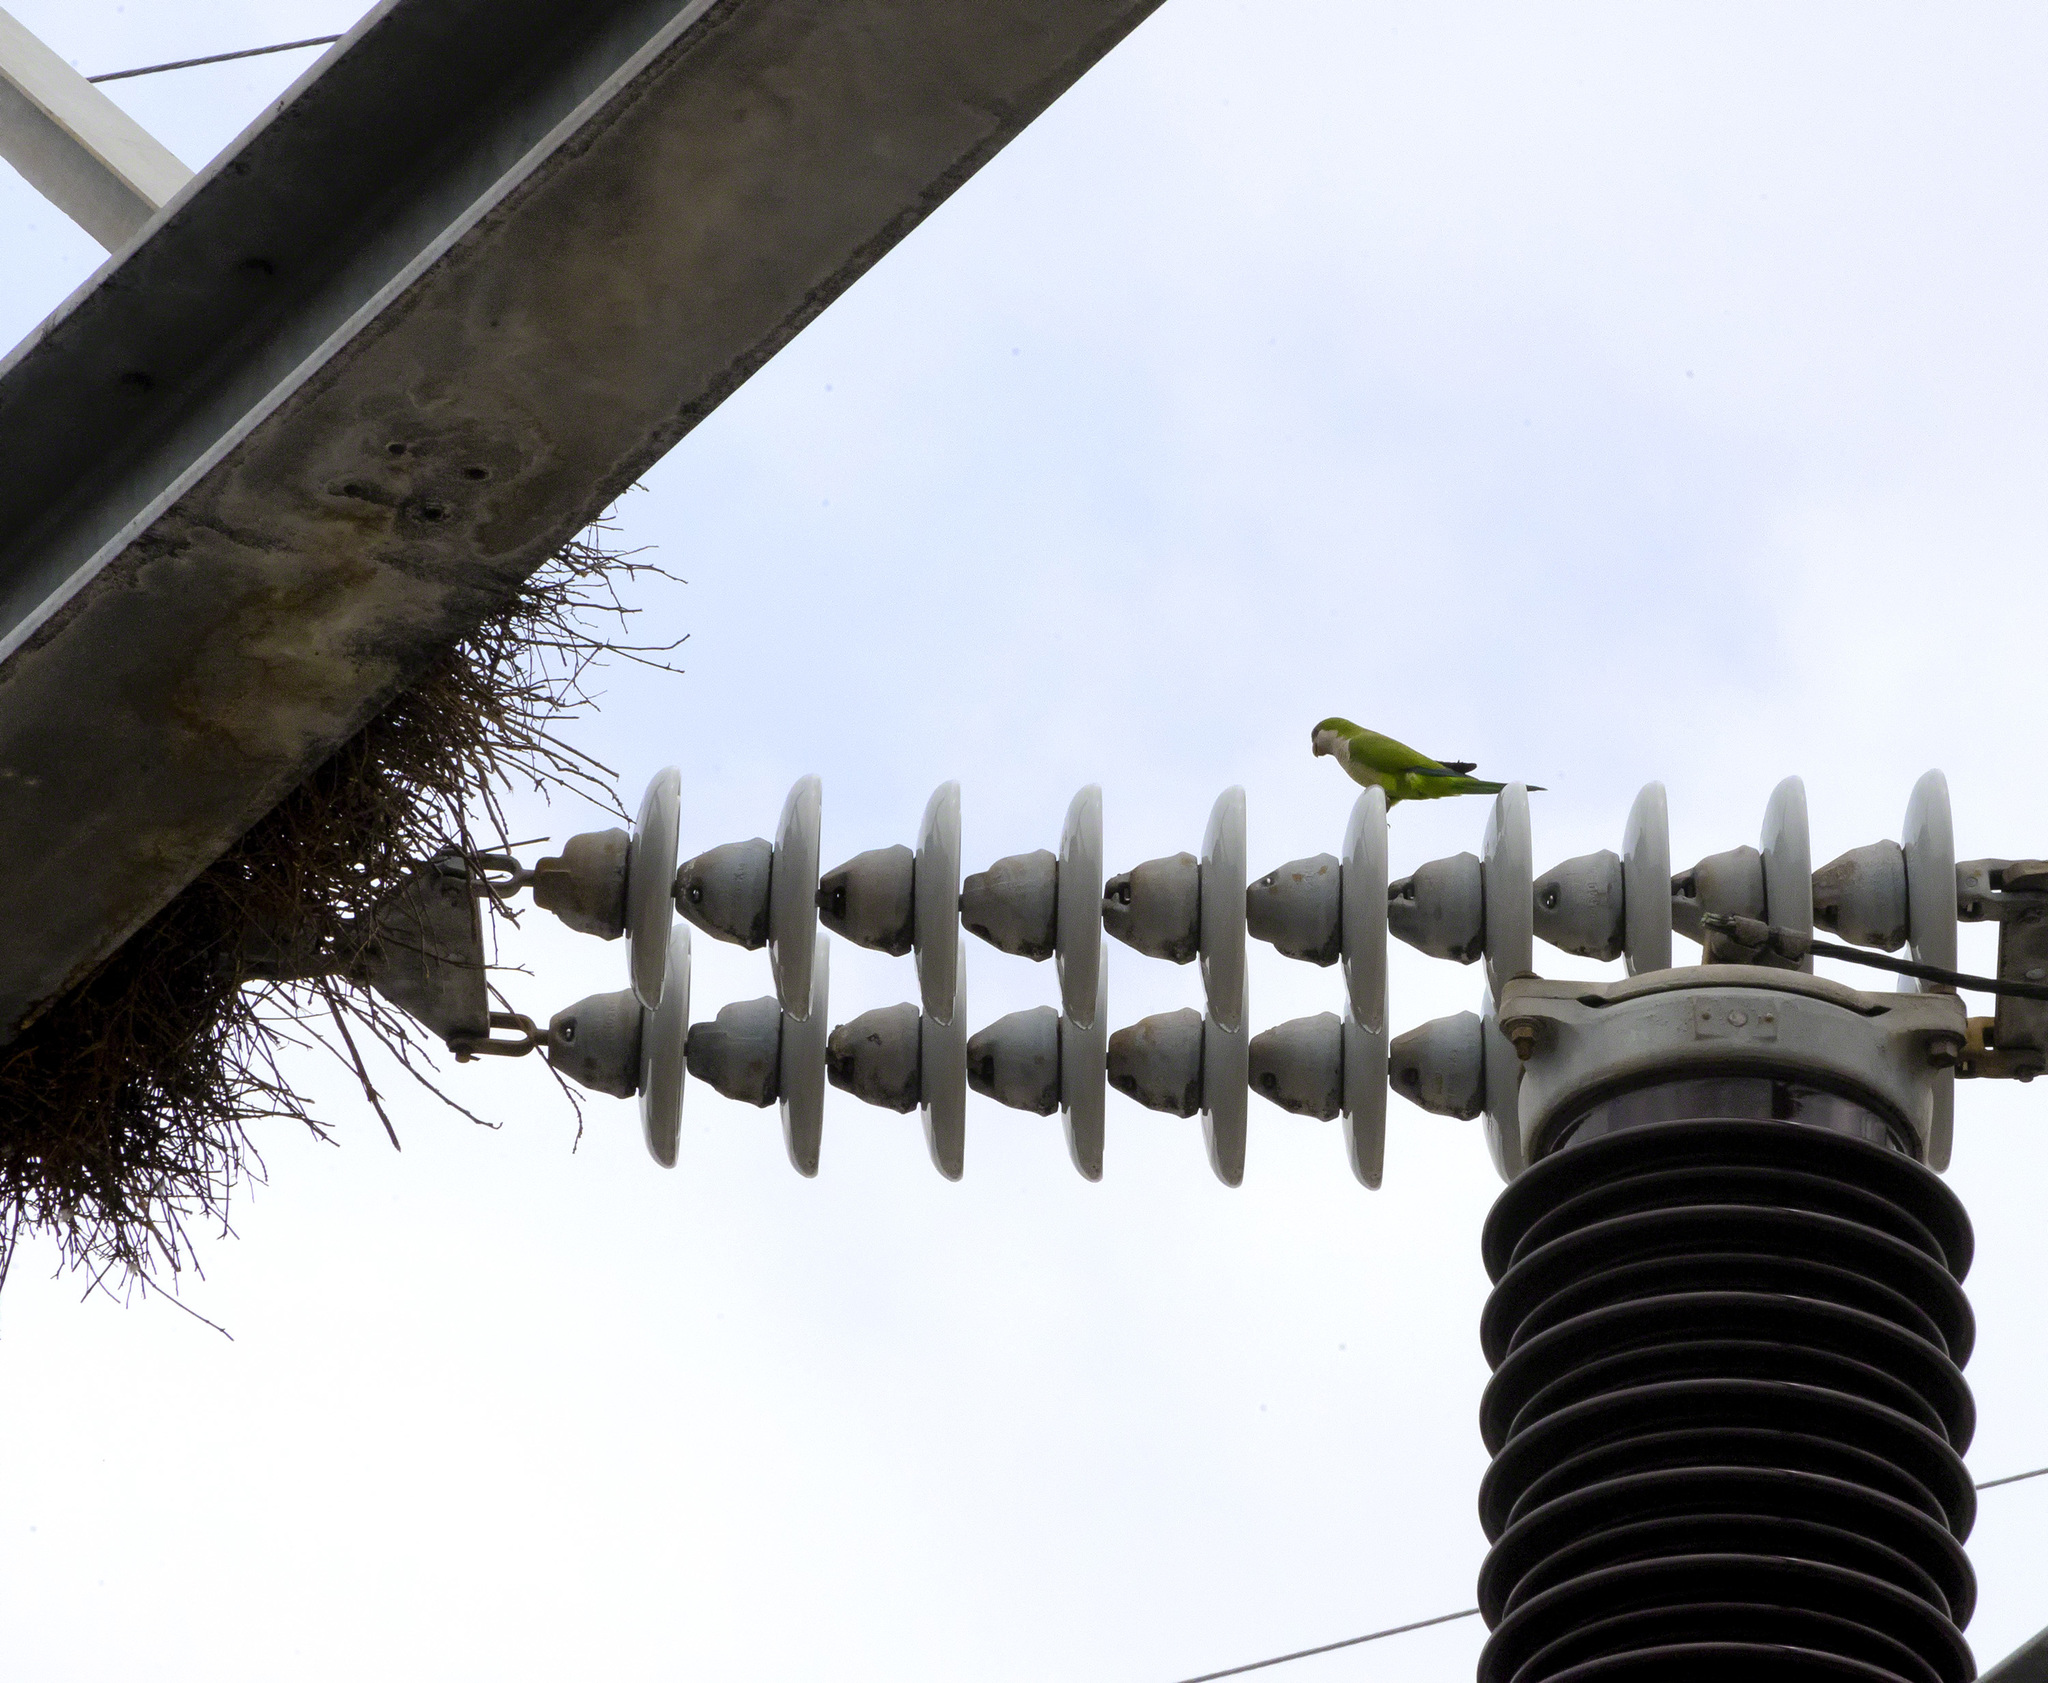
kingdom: Animalia
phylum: Chordata
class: Aves
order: Psittaciformes
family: Psittacidae
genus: Myiopsitta
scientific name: Myiopsitta monachus
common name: Monk parakeet
